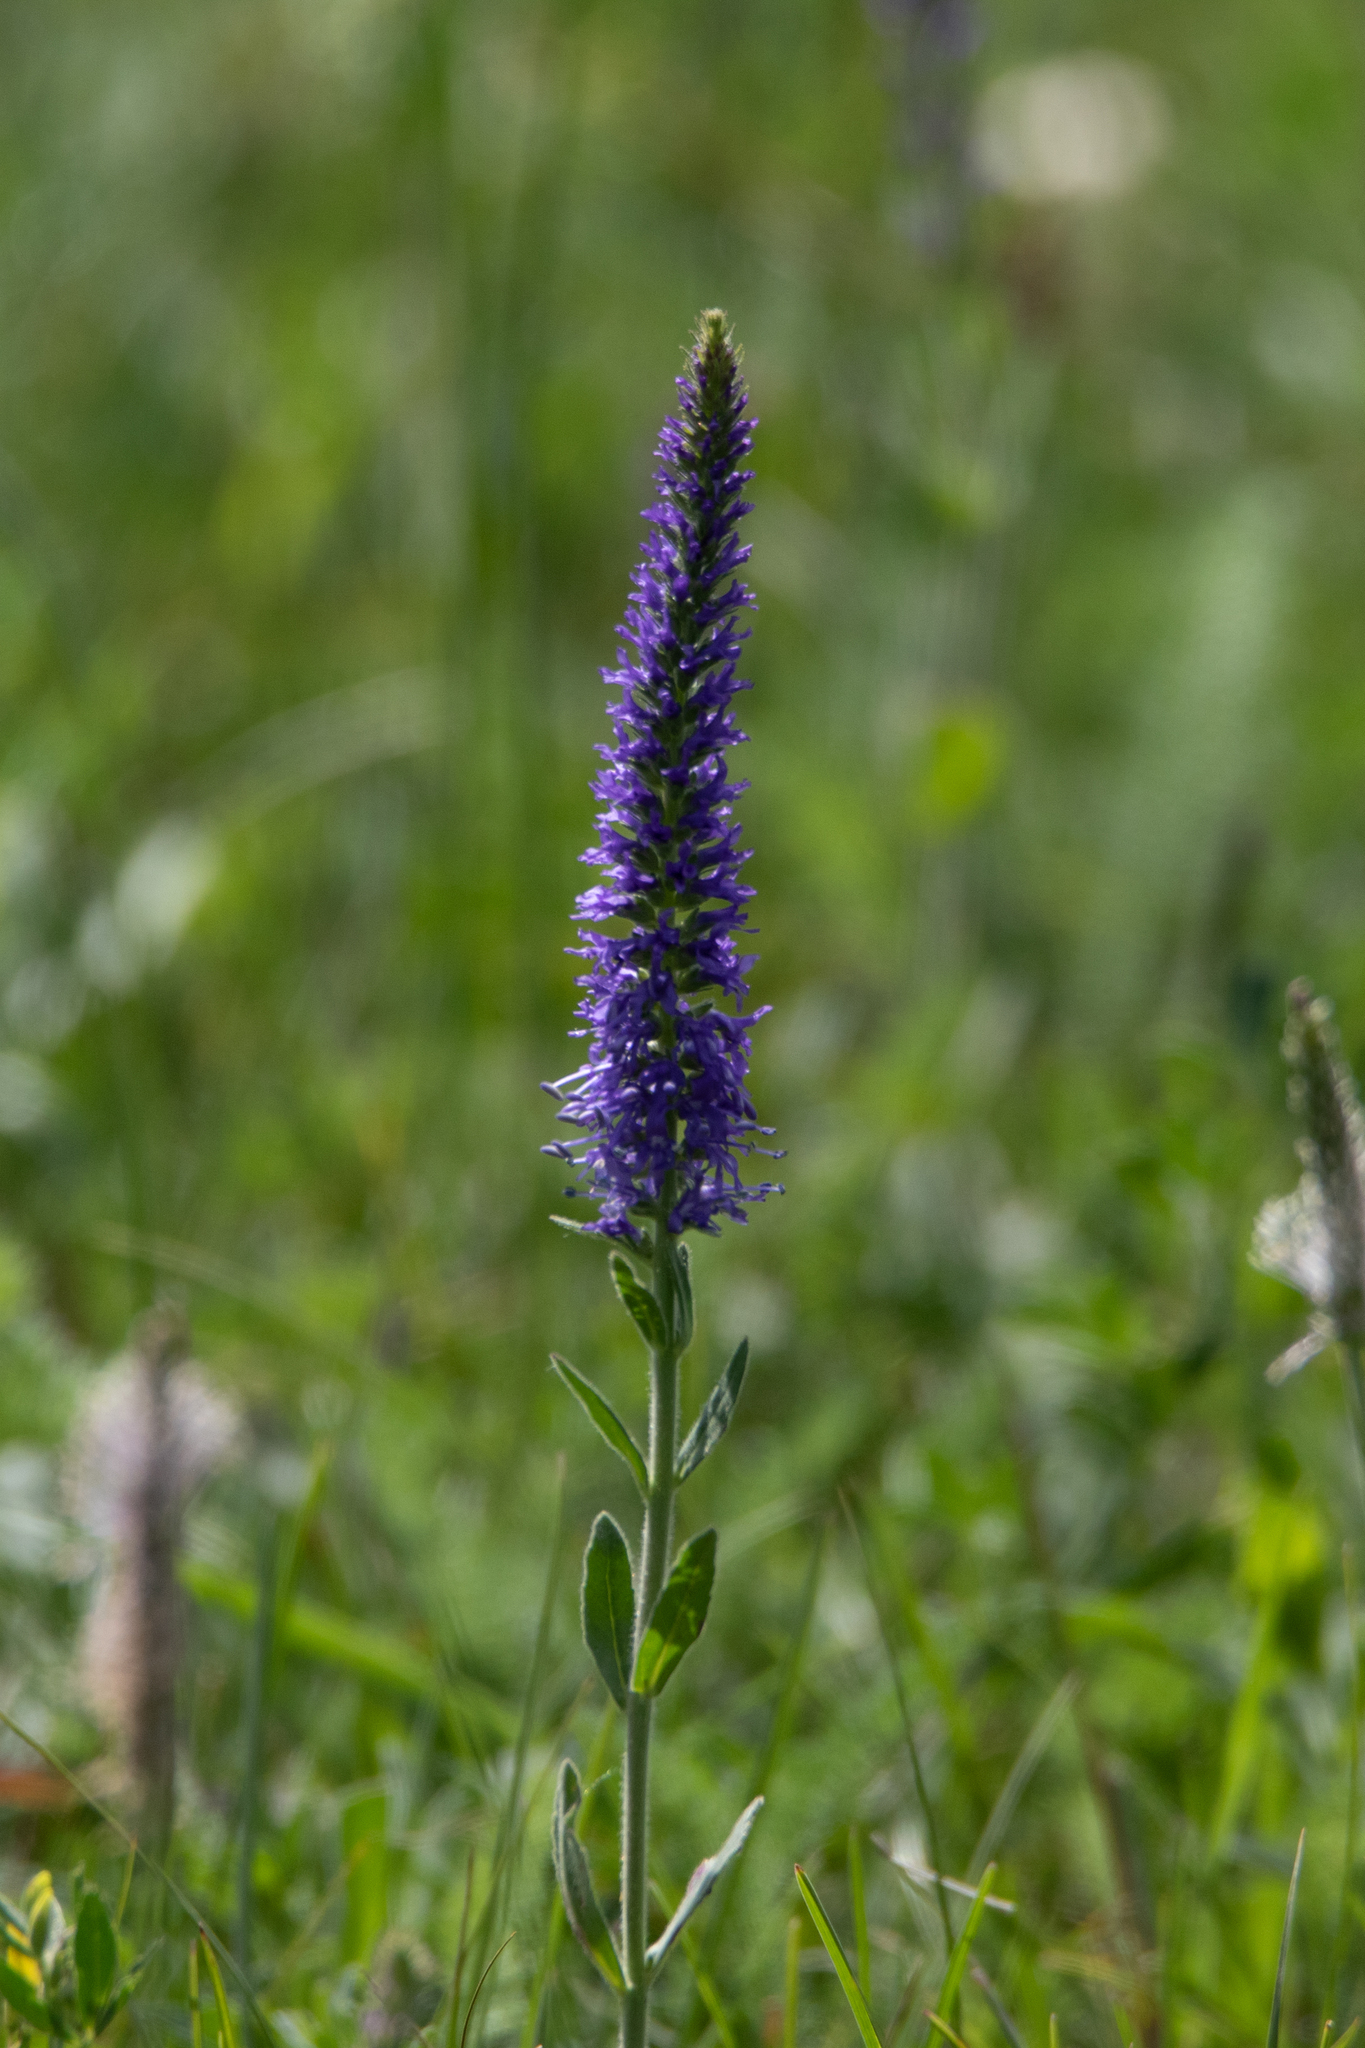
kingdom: Plantae
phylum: Tracheophyta
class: Magnoliopsida
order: Lamiales
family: Plantaginaceae
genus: Veronica
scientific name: Veronica porphyriana
